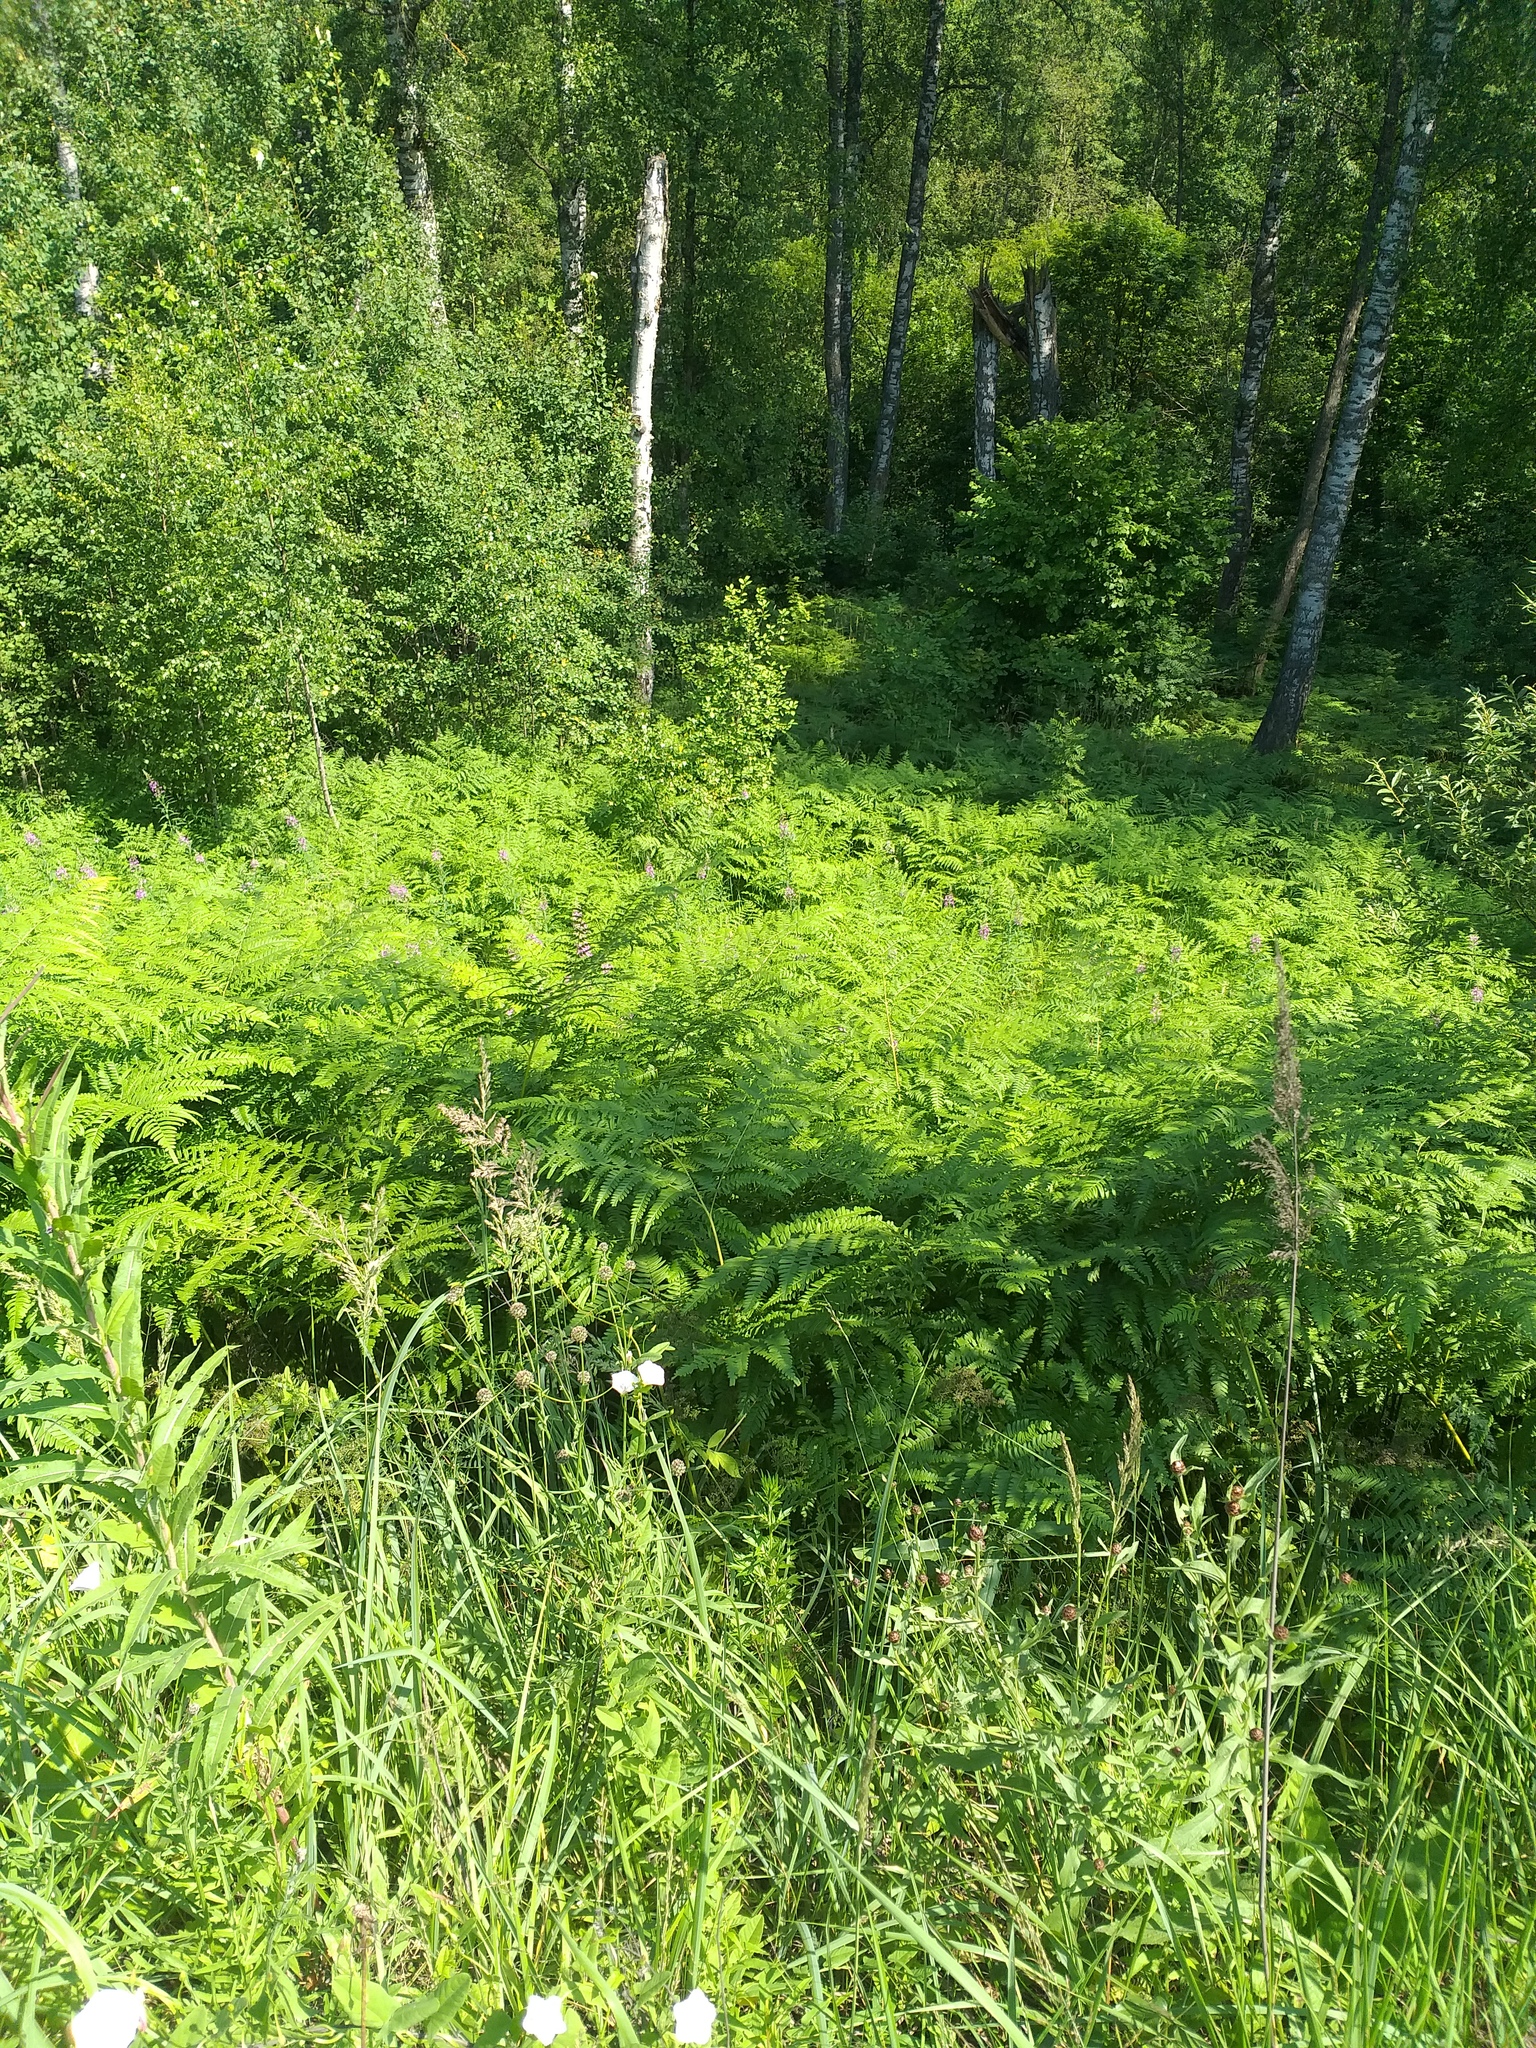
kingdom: Plantae
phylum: Tracheophyta
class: Polypodiopsida
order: Polypodiales
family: Dennstaedtiaceae
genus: Pteridium
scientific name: Pteridium aquilinum
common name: Bracken
